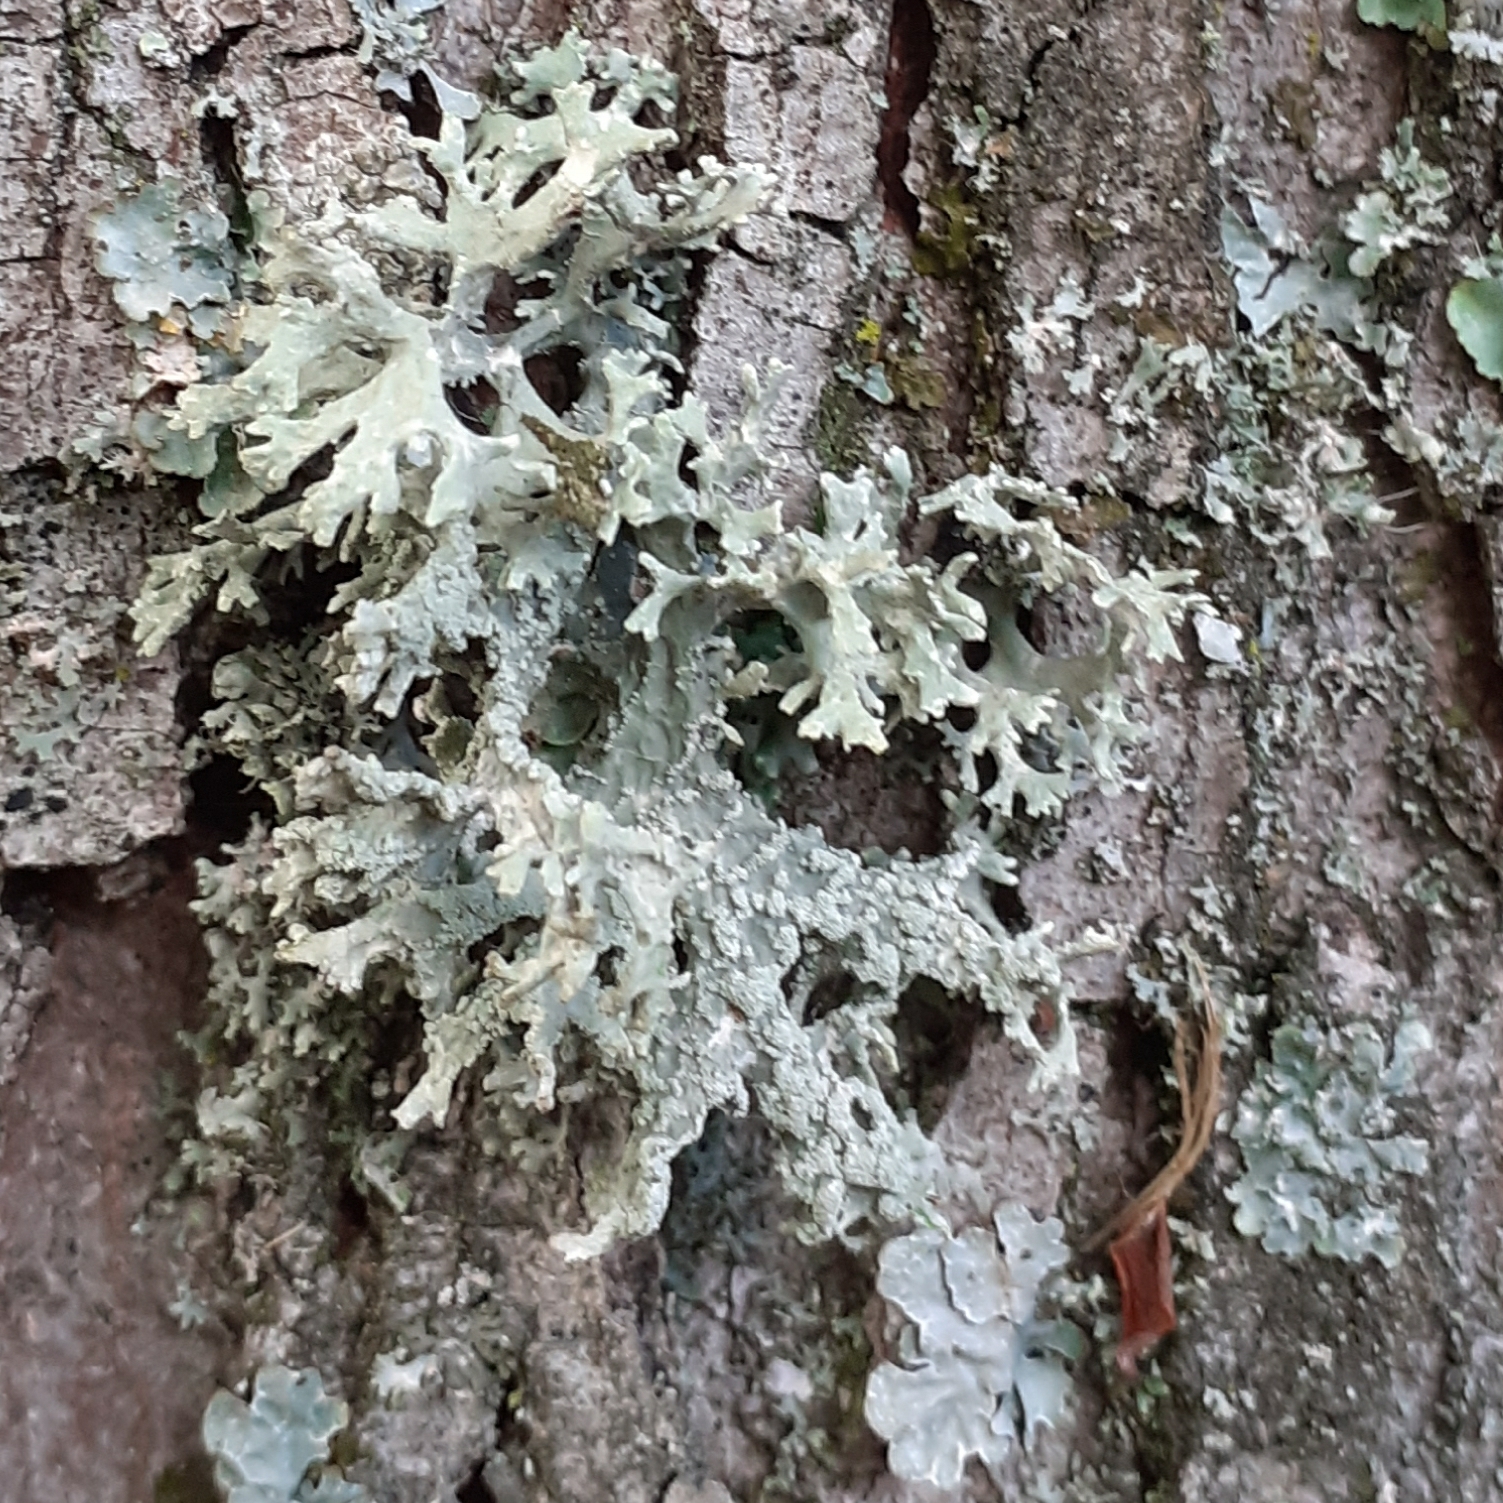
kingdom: Fungi
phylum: Ascomycota
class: Lecanoromycetes
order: Lecanorales
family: Parmeliaceae
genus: Evernia
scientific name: Evernia prunastri
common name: Oak moss
